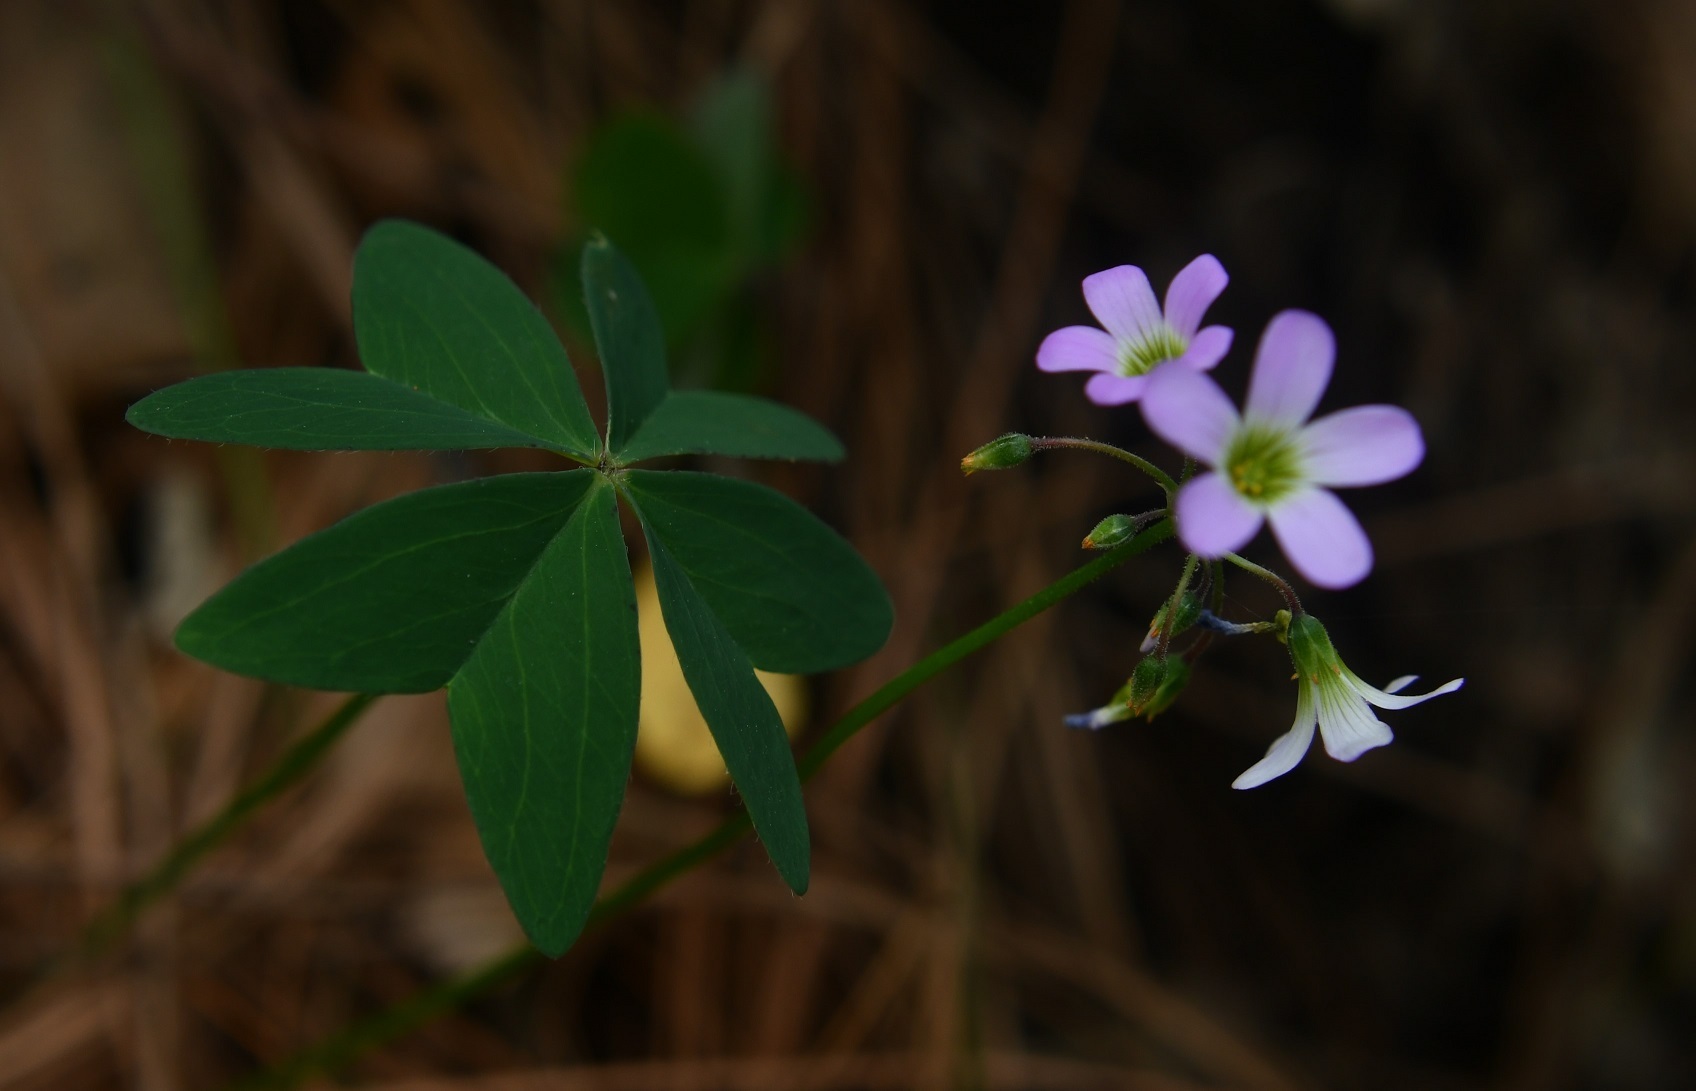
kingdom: Plantae
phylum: Tracheophyta
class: Magnoliopsida
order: Oxalidales
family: Oxalidaceae
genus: Oxalis
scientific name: Oxalis tetraphylla
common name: Four-leaved pink-sorrel
